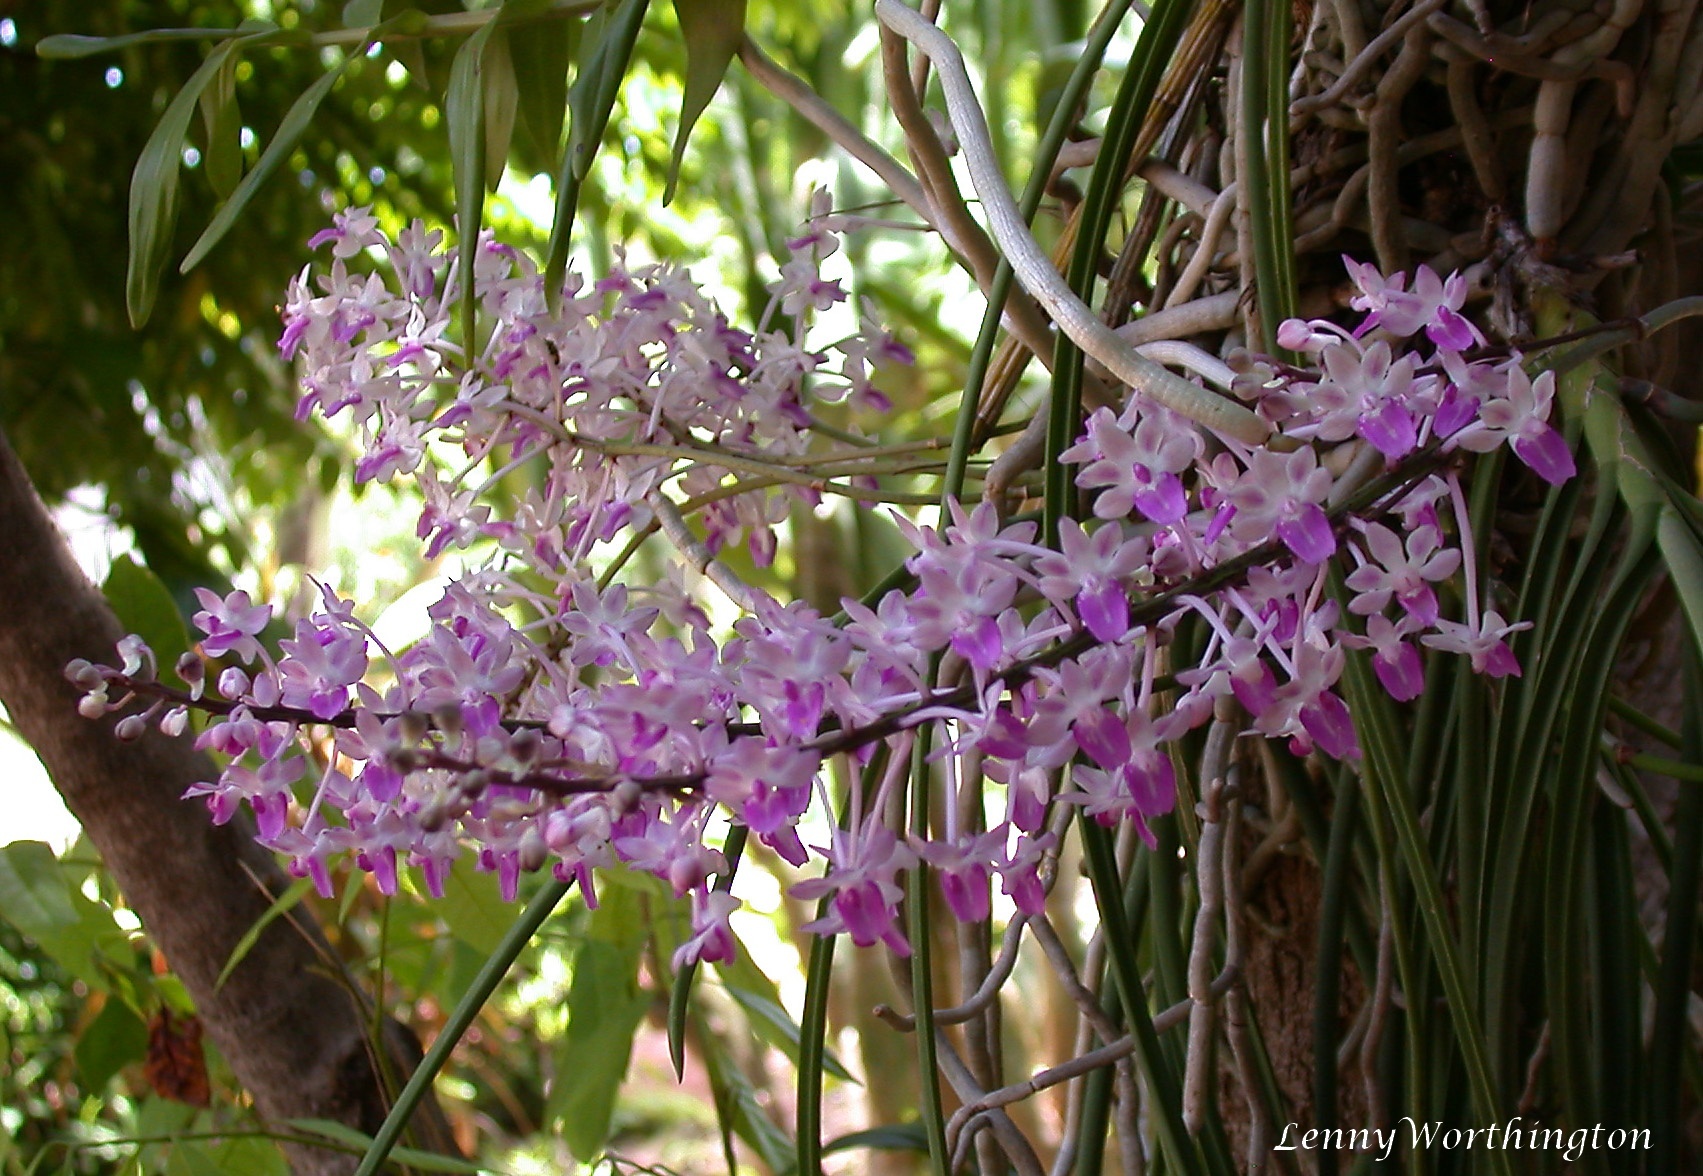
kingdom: Plantae
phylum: Tracheophyta
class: Liliopsida
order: Asparagales
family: Orchidaceae
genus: Seidenfadenia
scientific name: Seidenfadenia mitrata
